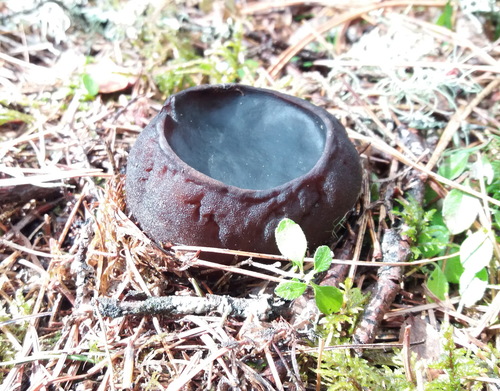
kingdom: Fungi
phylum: Ascomycota
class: Pezizomycetes
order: Pezizales
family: Sarcosomataceae
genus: Sarcosoma
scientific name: Sarcosoma globosum
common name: Charred-pancake cup
